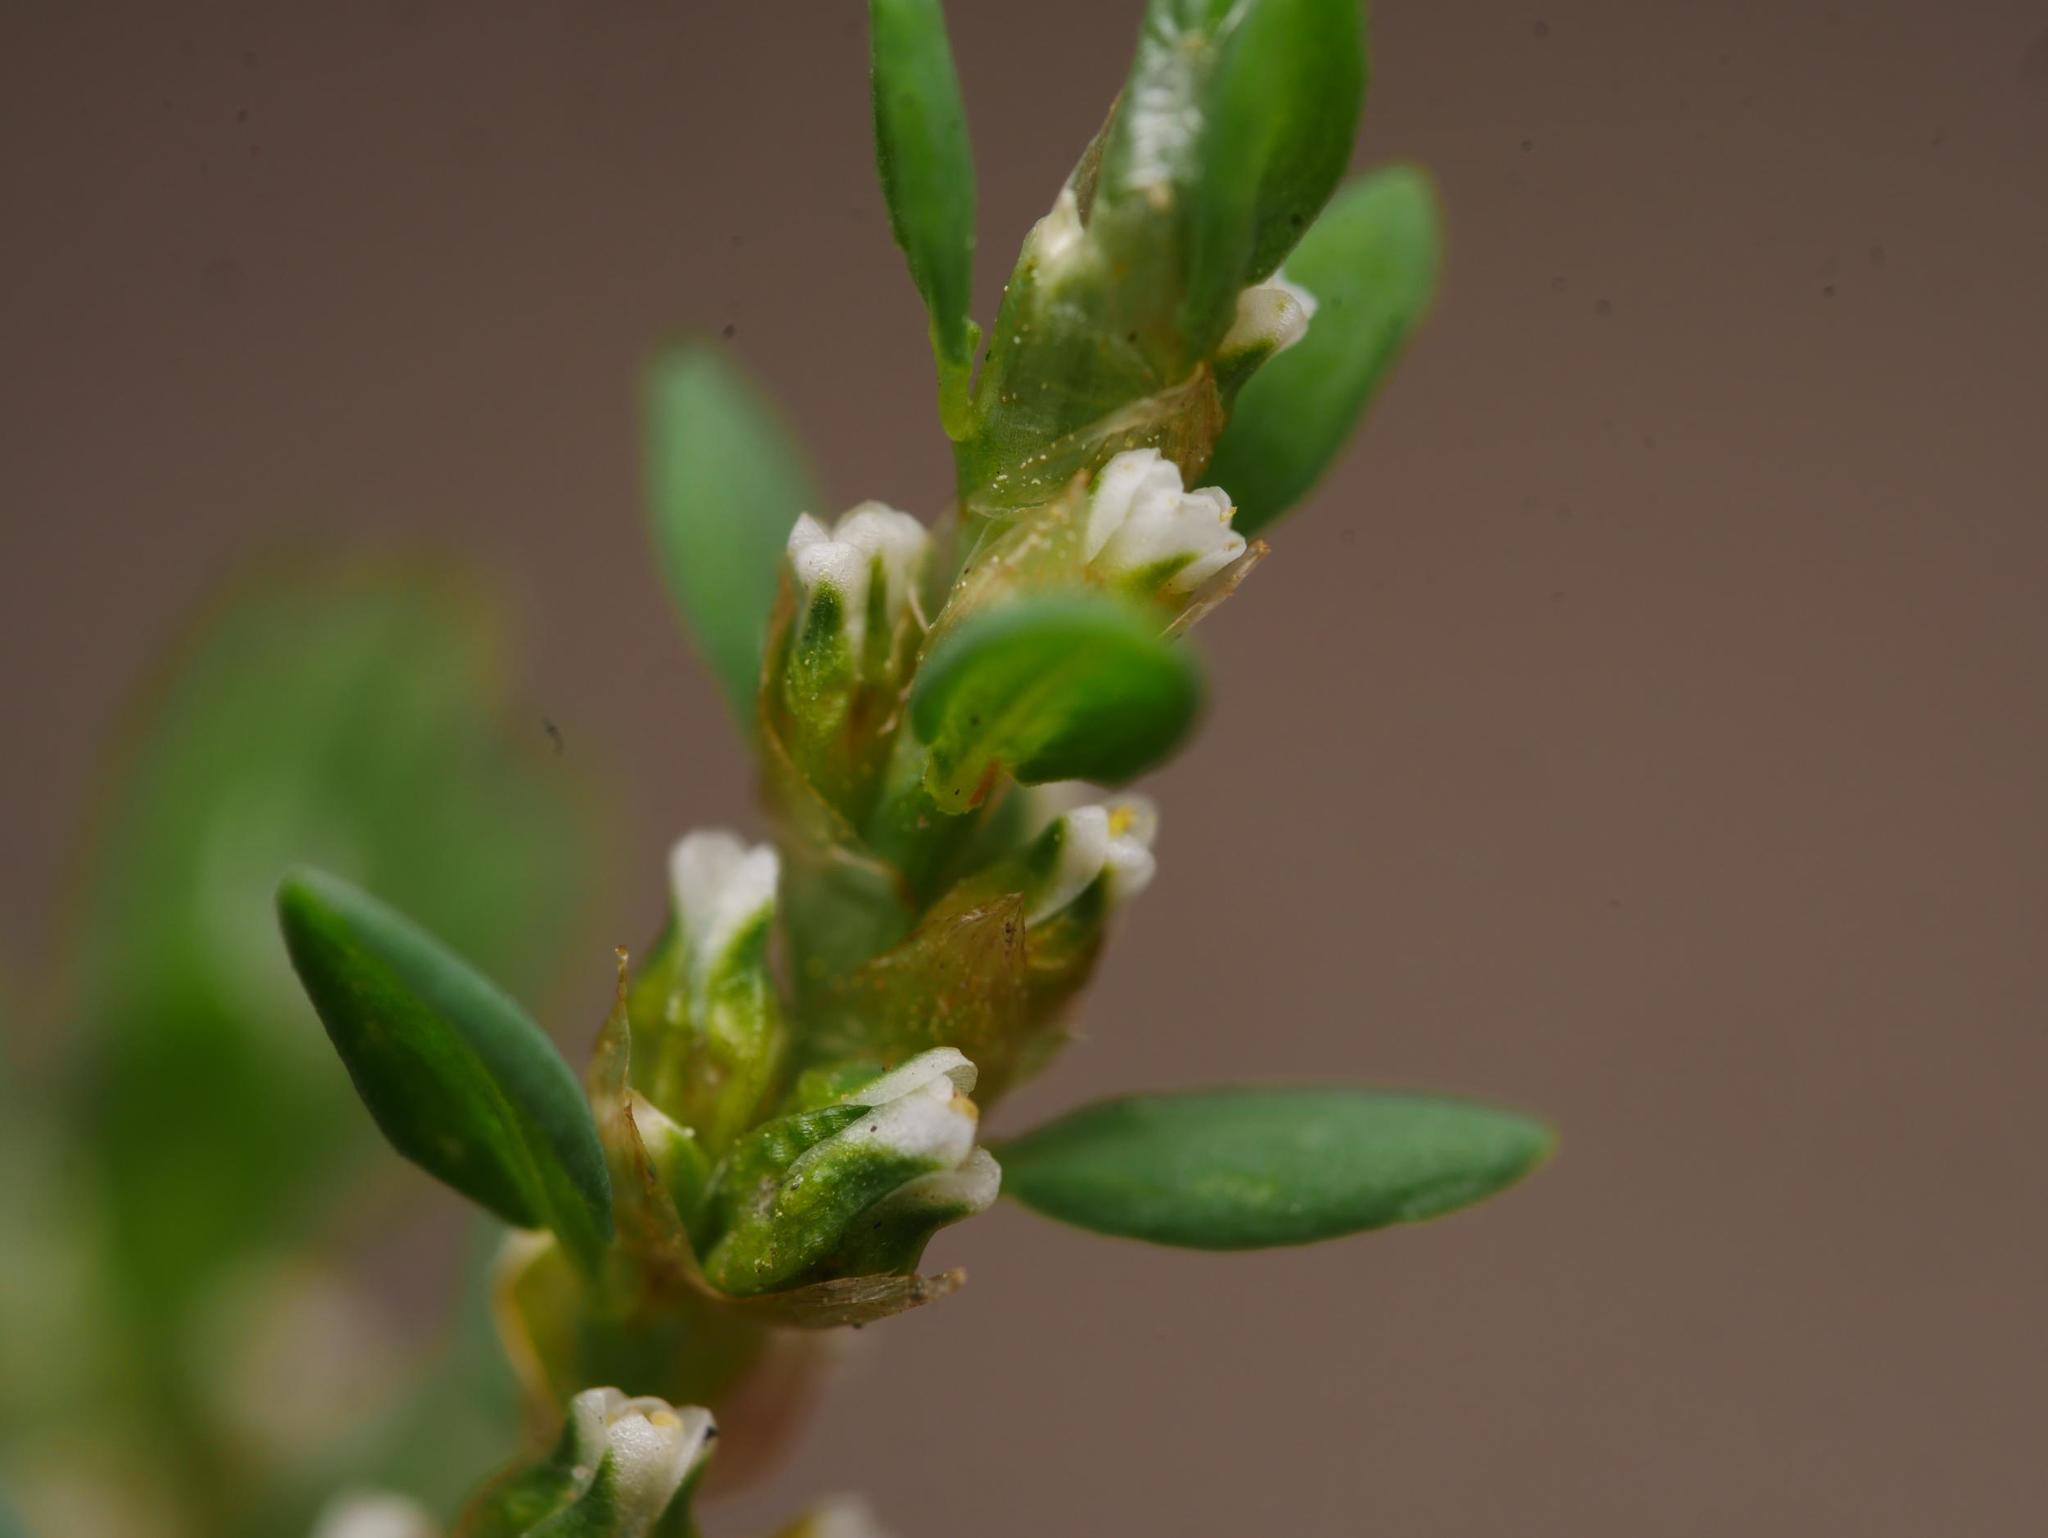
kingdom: Plantae
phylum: Tracheophyta
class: Magnoliopsida
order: Caryophyllales
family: Polygonaceae
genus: Polygonum
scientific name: Polygonum aviculare
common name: Prostrate knotweed
